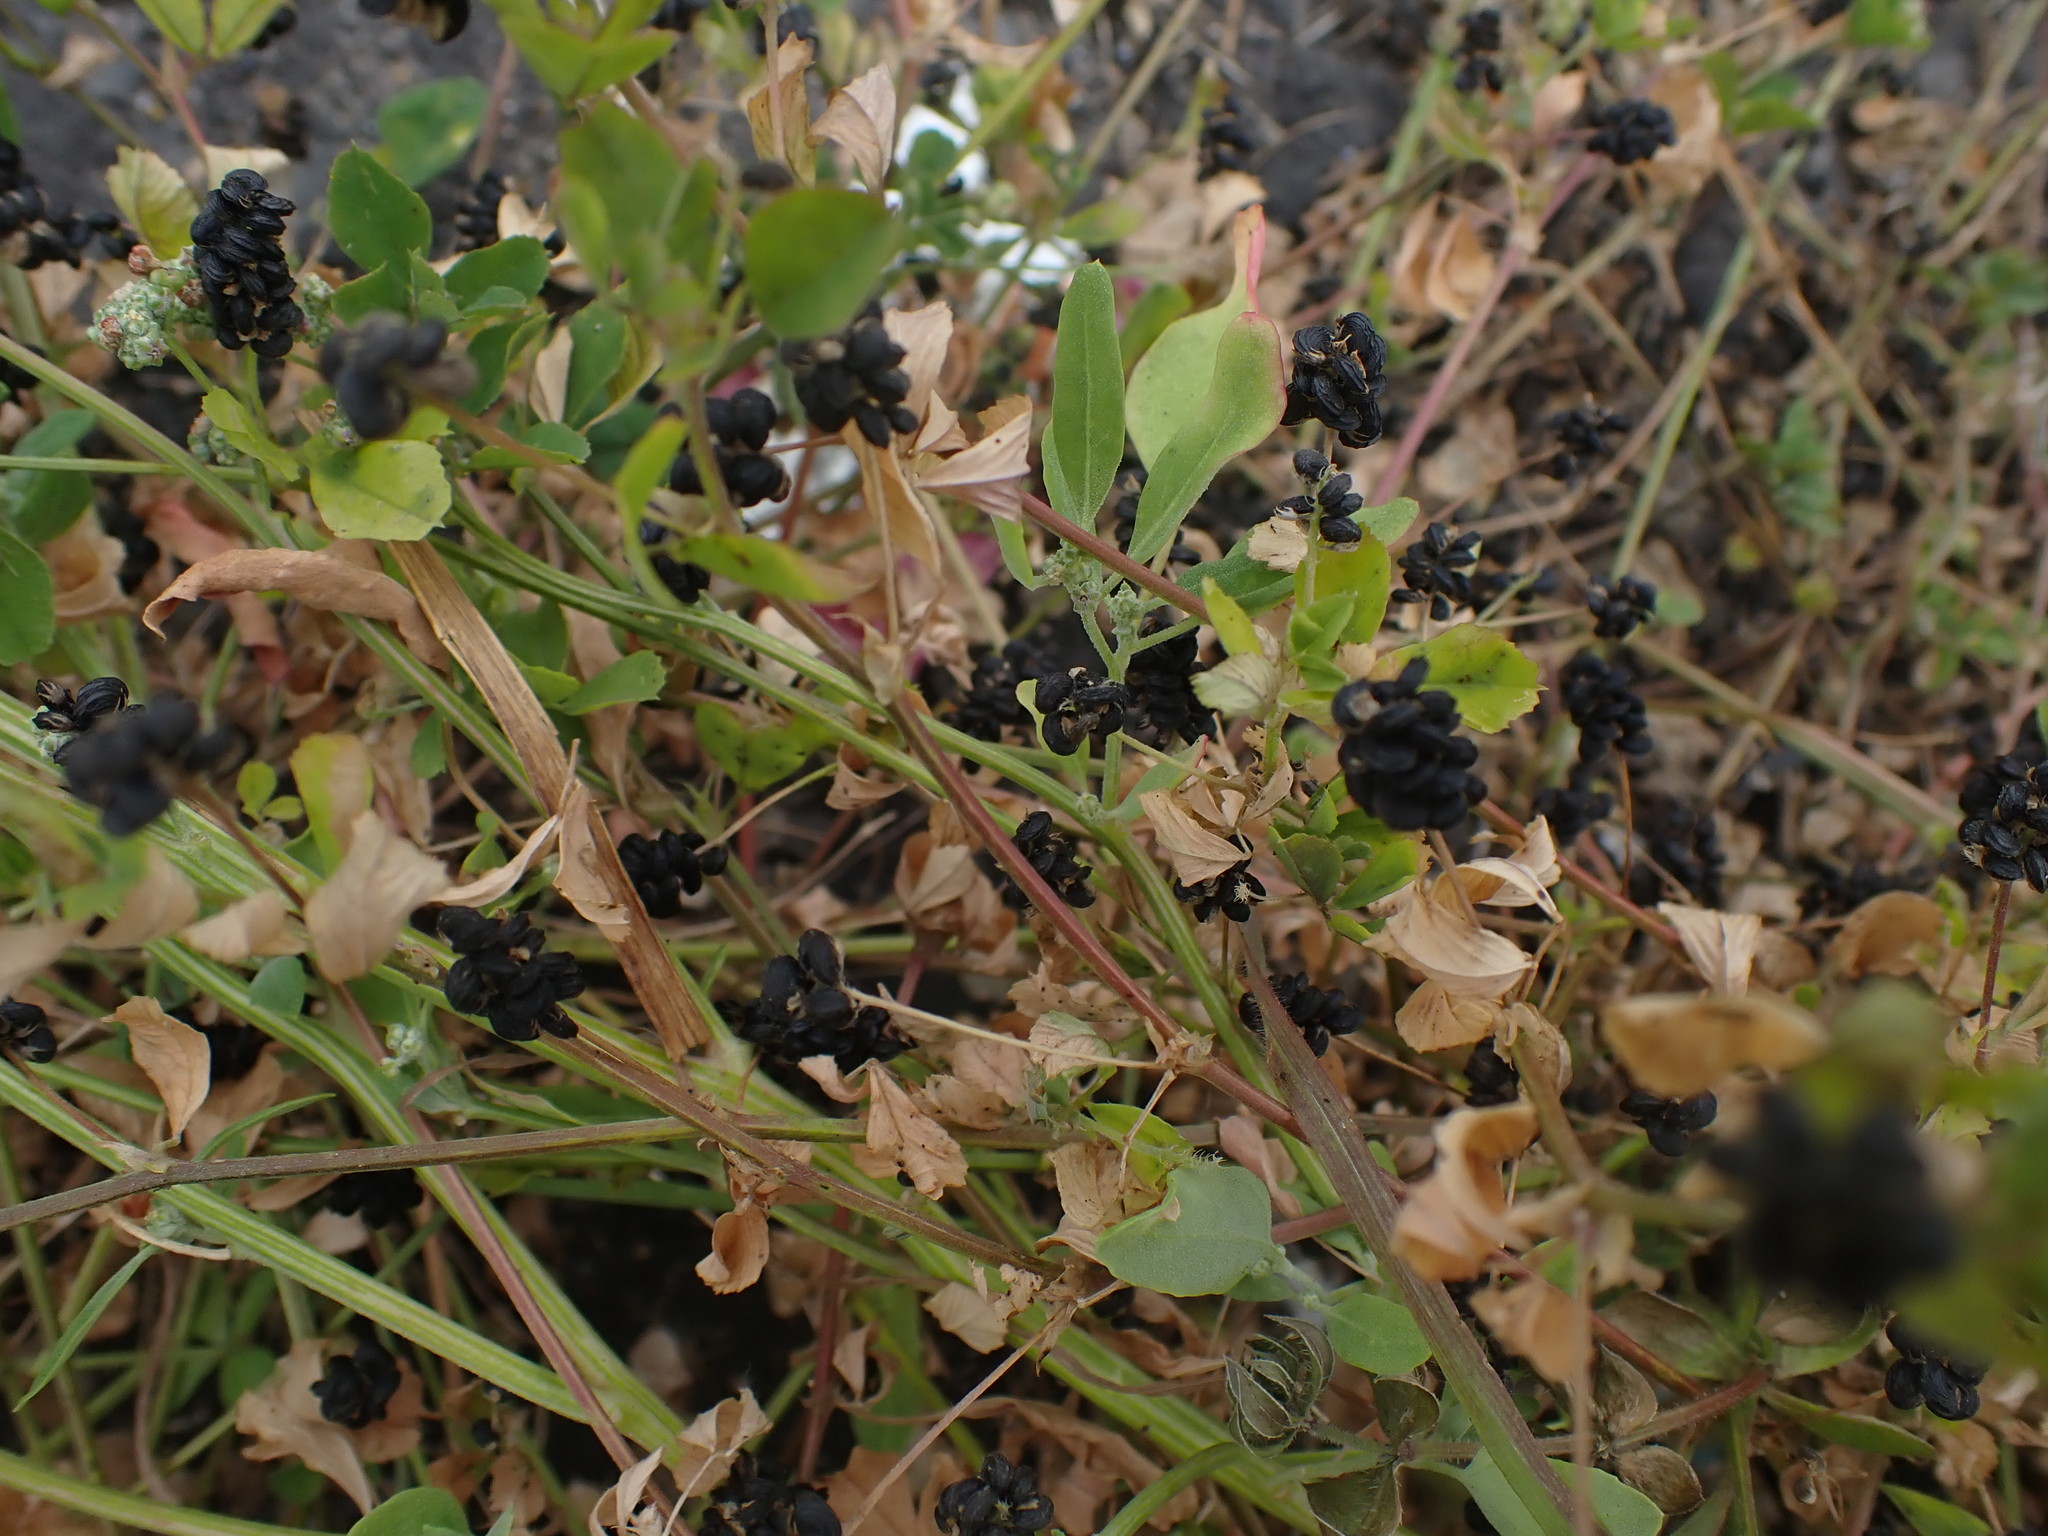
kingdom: Plantae
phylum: Tracheophyta
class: Magnoliopsida
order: Fabales
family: Fabaceae
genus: Medicago
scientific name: Medicago lupulina
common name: Black medick
